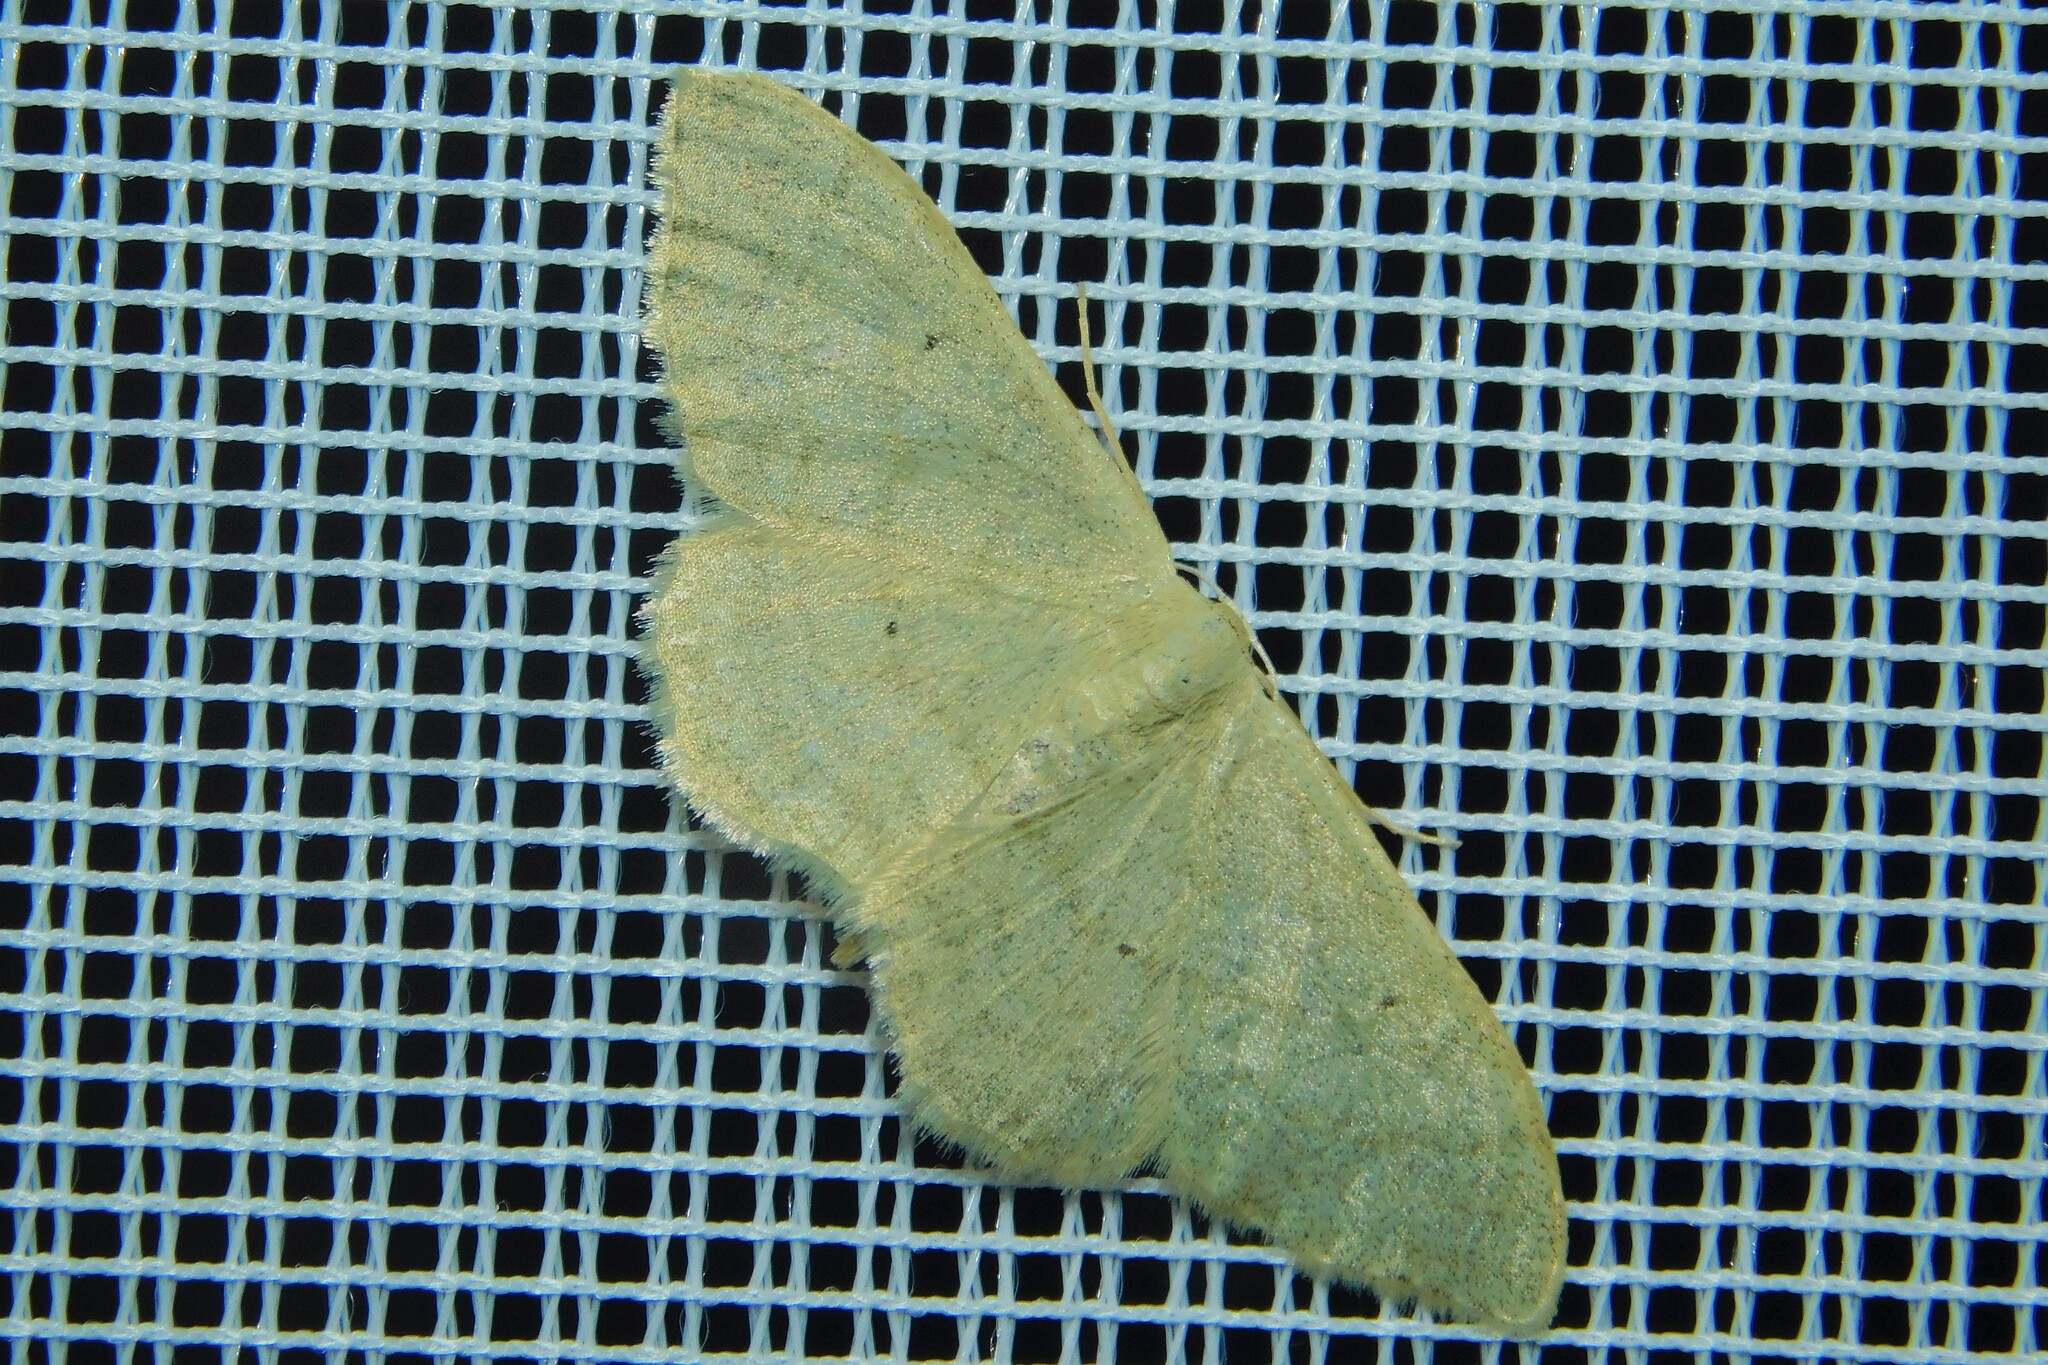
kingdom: Animalia
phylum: Arthropoda
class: Insecta
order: Lepidoptera
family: Geometridae
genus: Idaea
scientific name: Idaea straminata
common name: Plain wave
